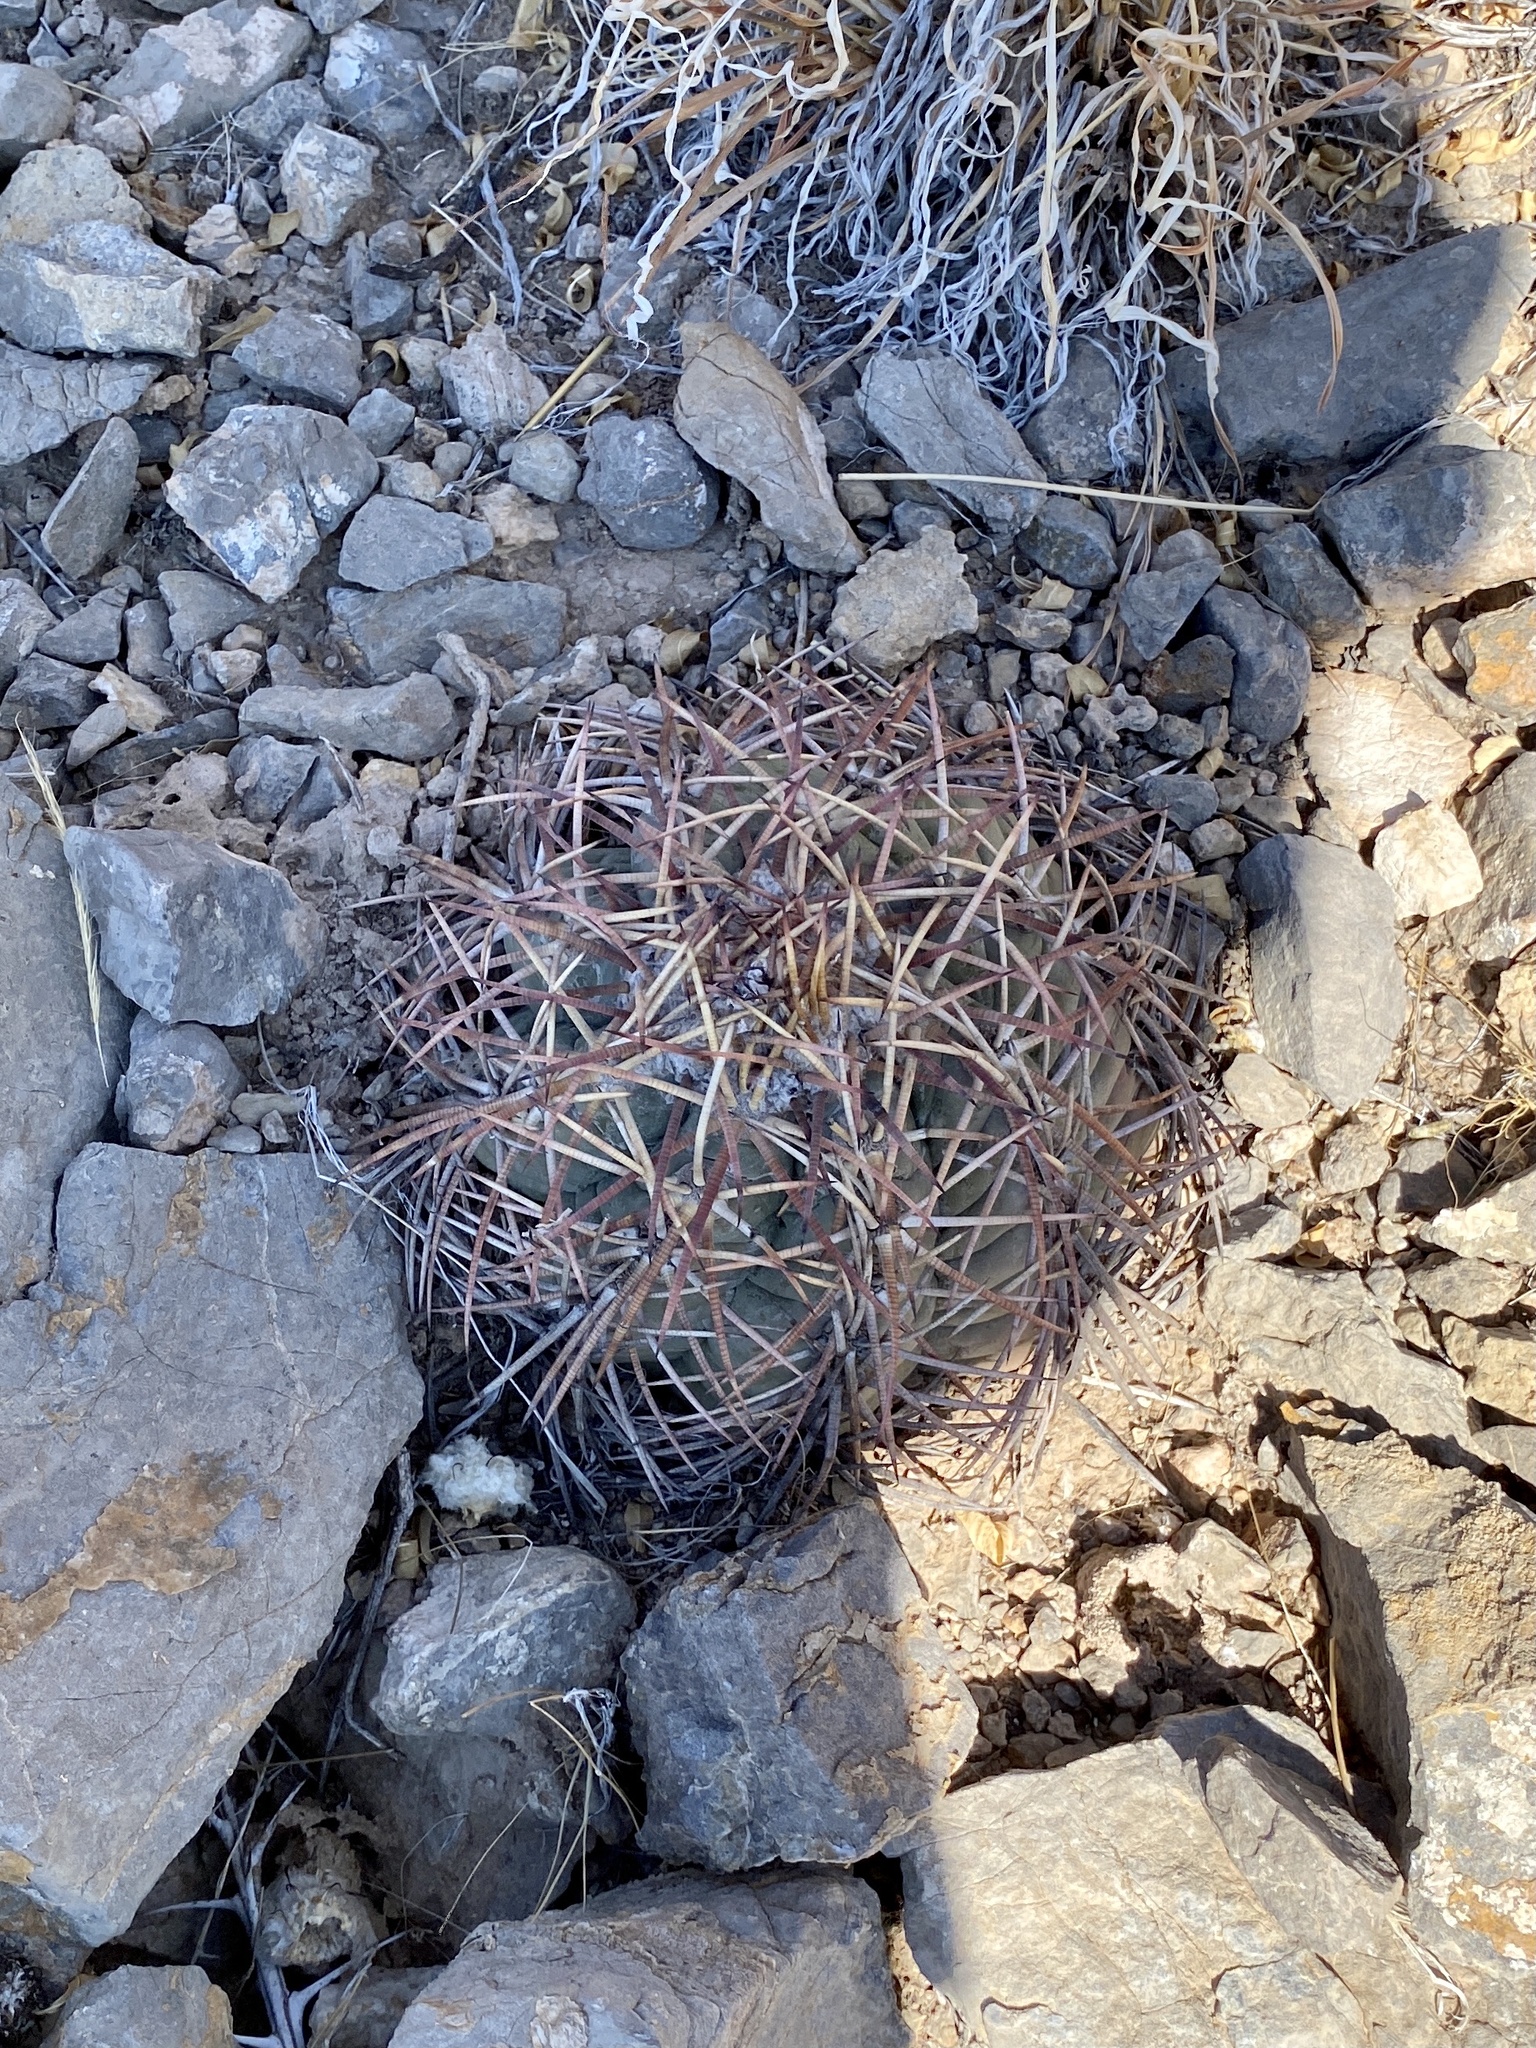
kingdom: Plantae
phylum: Tracheophyta
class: Magnoliopsida
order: Caryophyllales
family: Cactaceae
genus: Echinocactus
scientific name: Echinocactus horizonthalonius
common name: Devilshead
